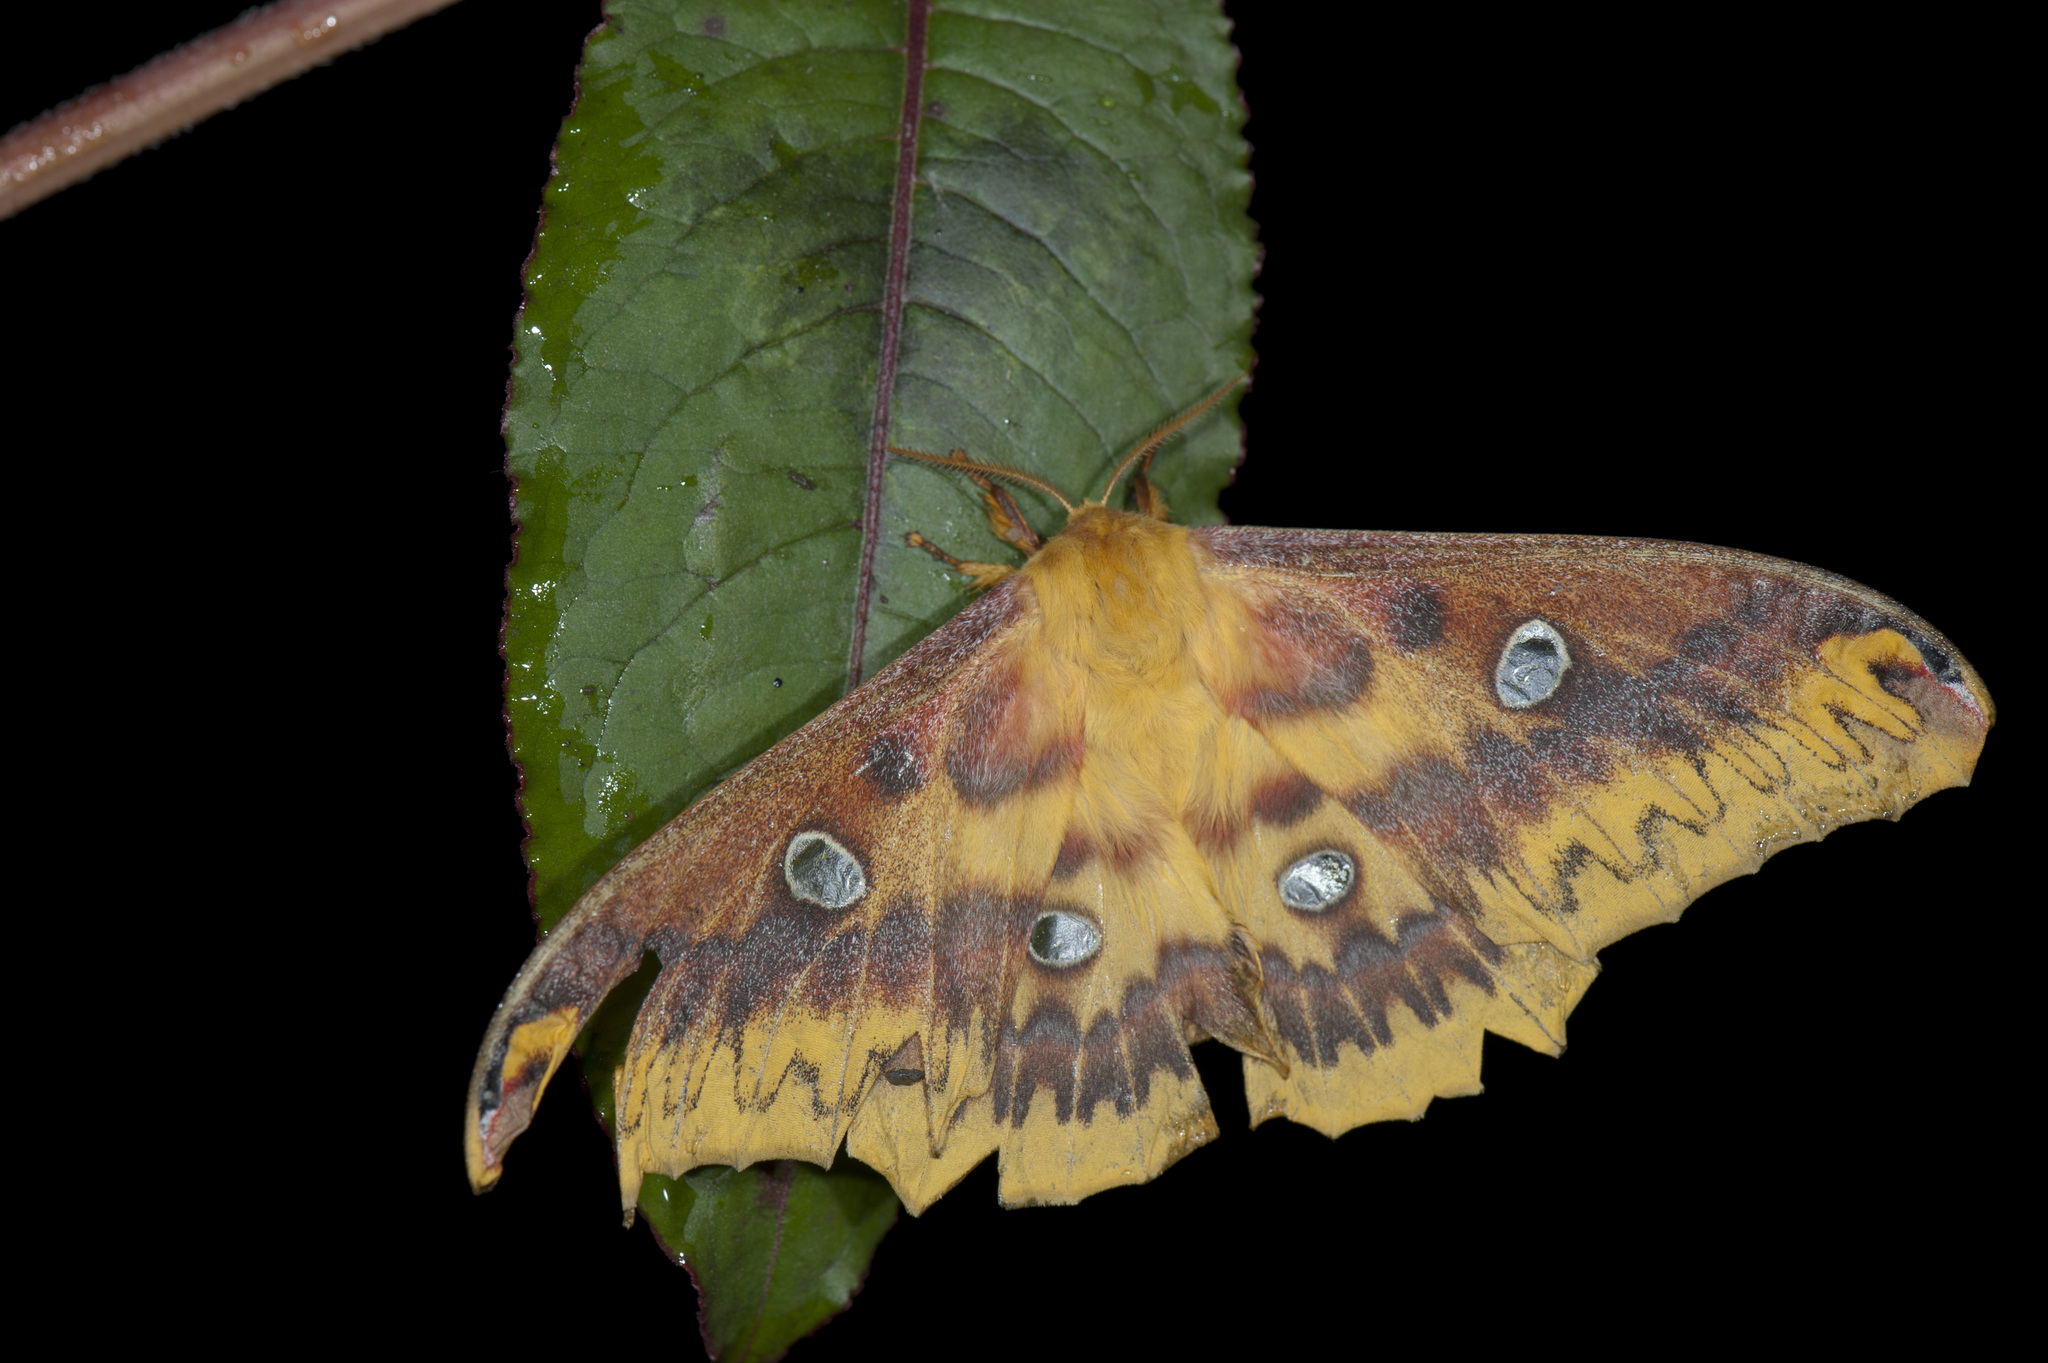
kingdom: Animalia
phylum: Arthropoda
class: Insecta
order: Lepidoptera
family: Saturniidae
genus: Rhodinia
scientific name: Rhodinia verecunda
